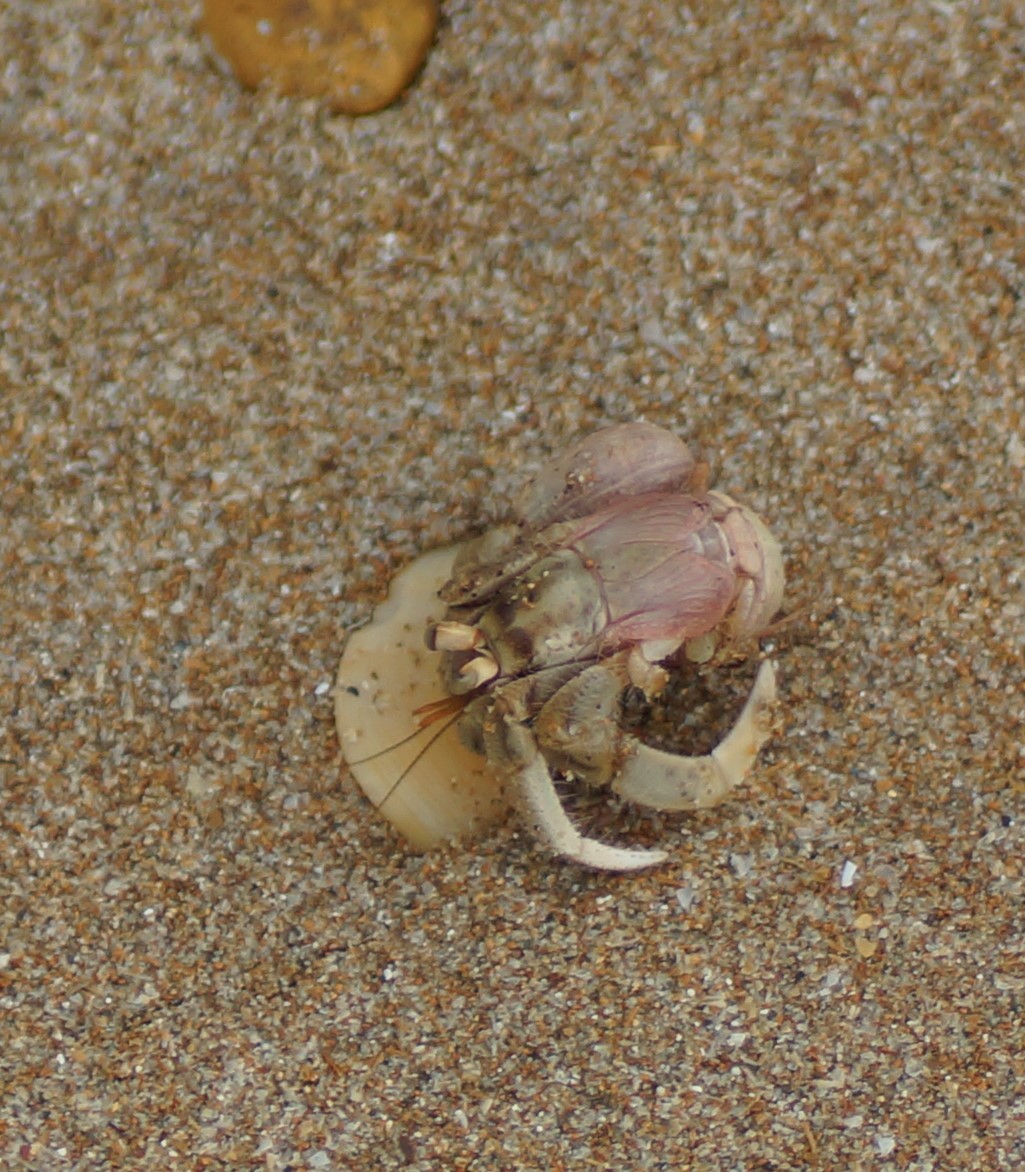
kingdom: Animalia
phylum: Arthropoda
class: Malacostraca
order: Decapoda
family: Coenobitidae
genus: Coenobita
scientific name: Coenobita variabilis
